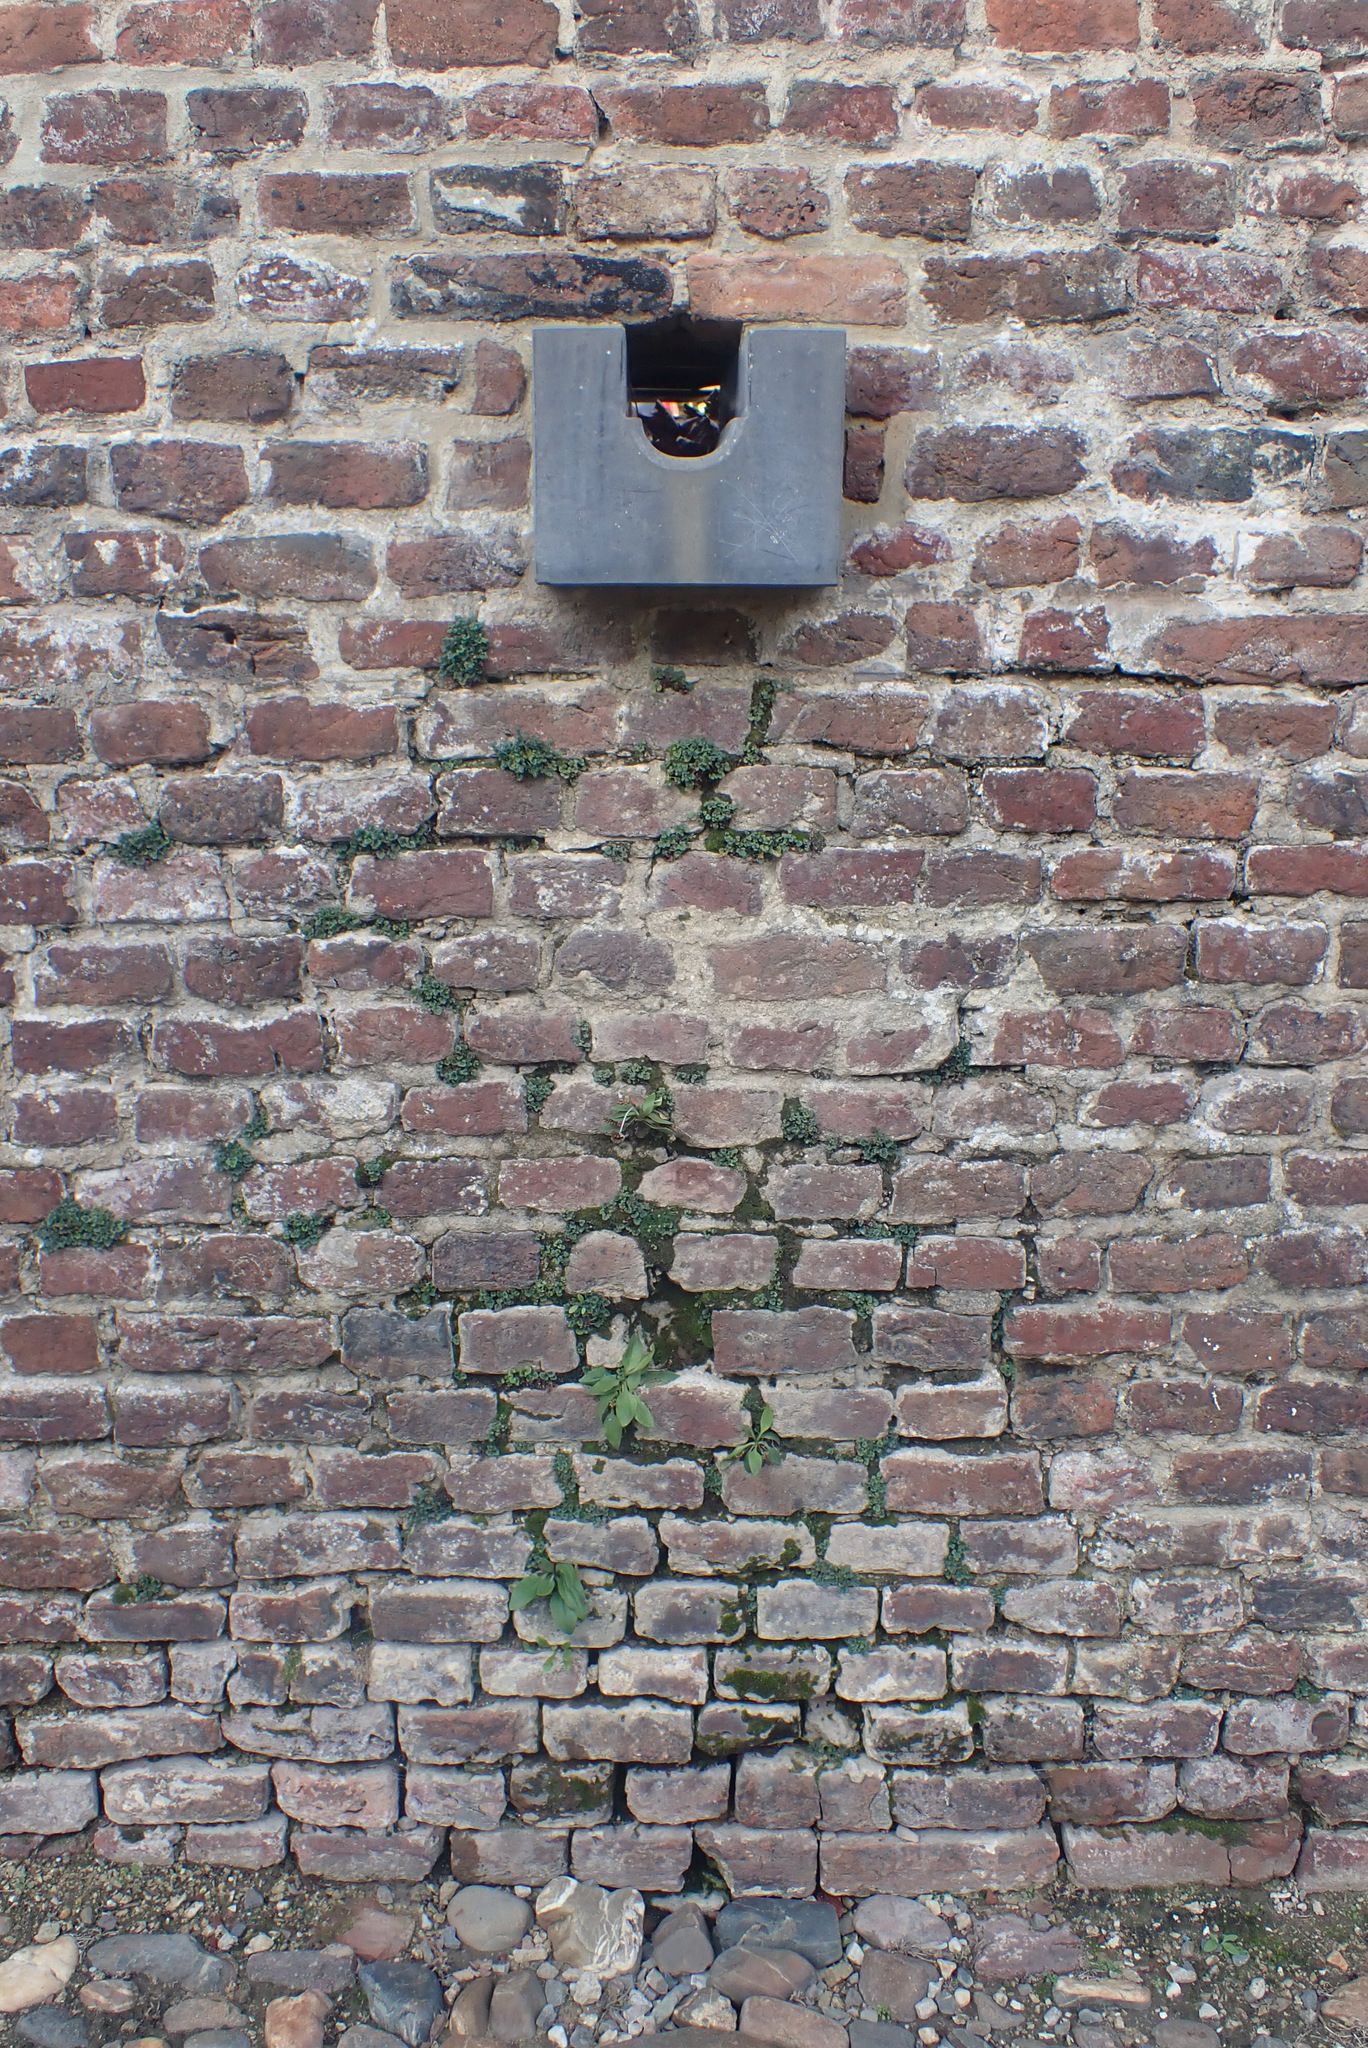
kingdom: Plantae
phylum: Tracheophyta
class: Magnoliopsida
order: Lamiales
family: Plantaginaceae
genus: Plantago
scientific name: Plantago major
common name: Common plantain
